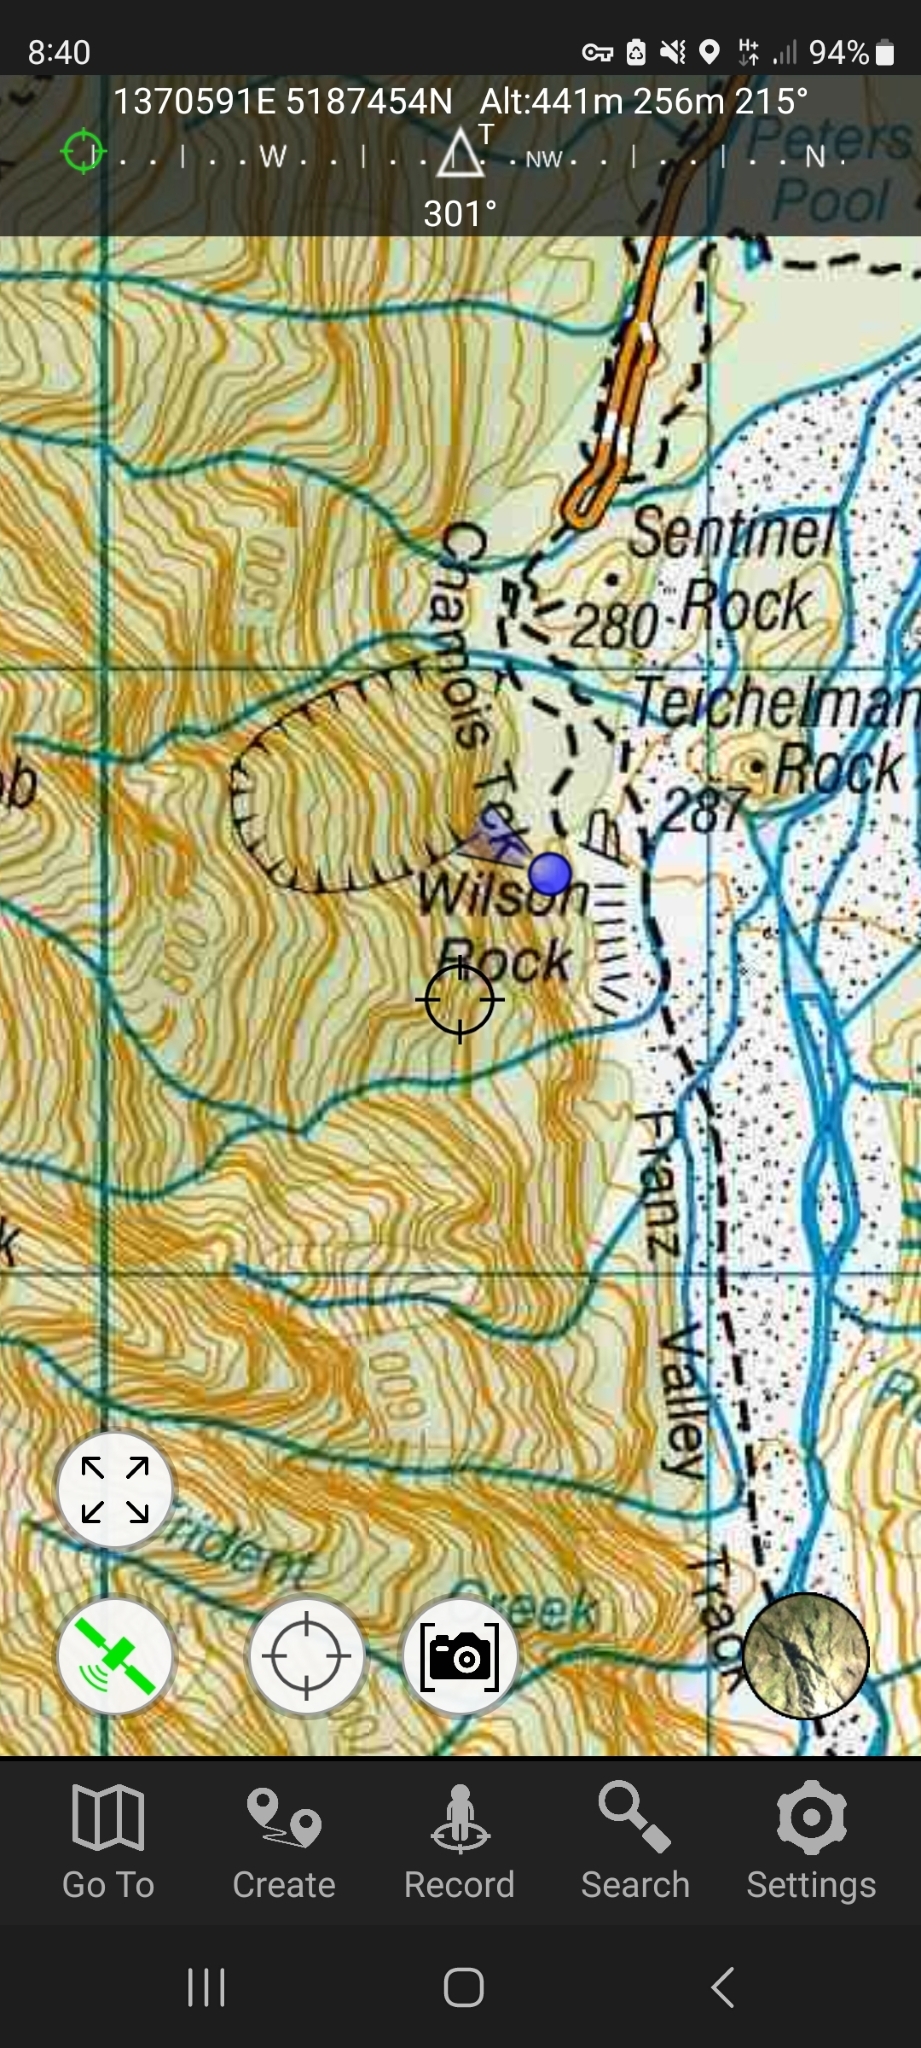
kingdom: Plantae
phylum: Tracheophyta
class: Magnoliopsida
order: Dipsacales
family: Caprifoliaceae
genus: Leycesteria
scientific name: Leycesteria formosa
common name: Himalayan honeysuckle
